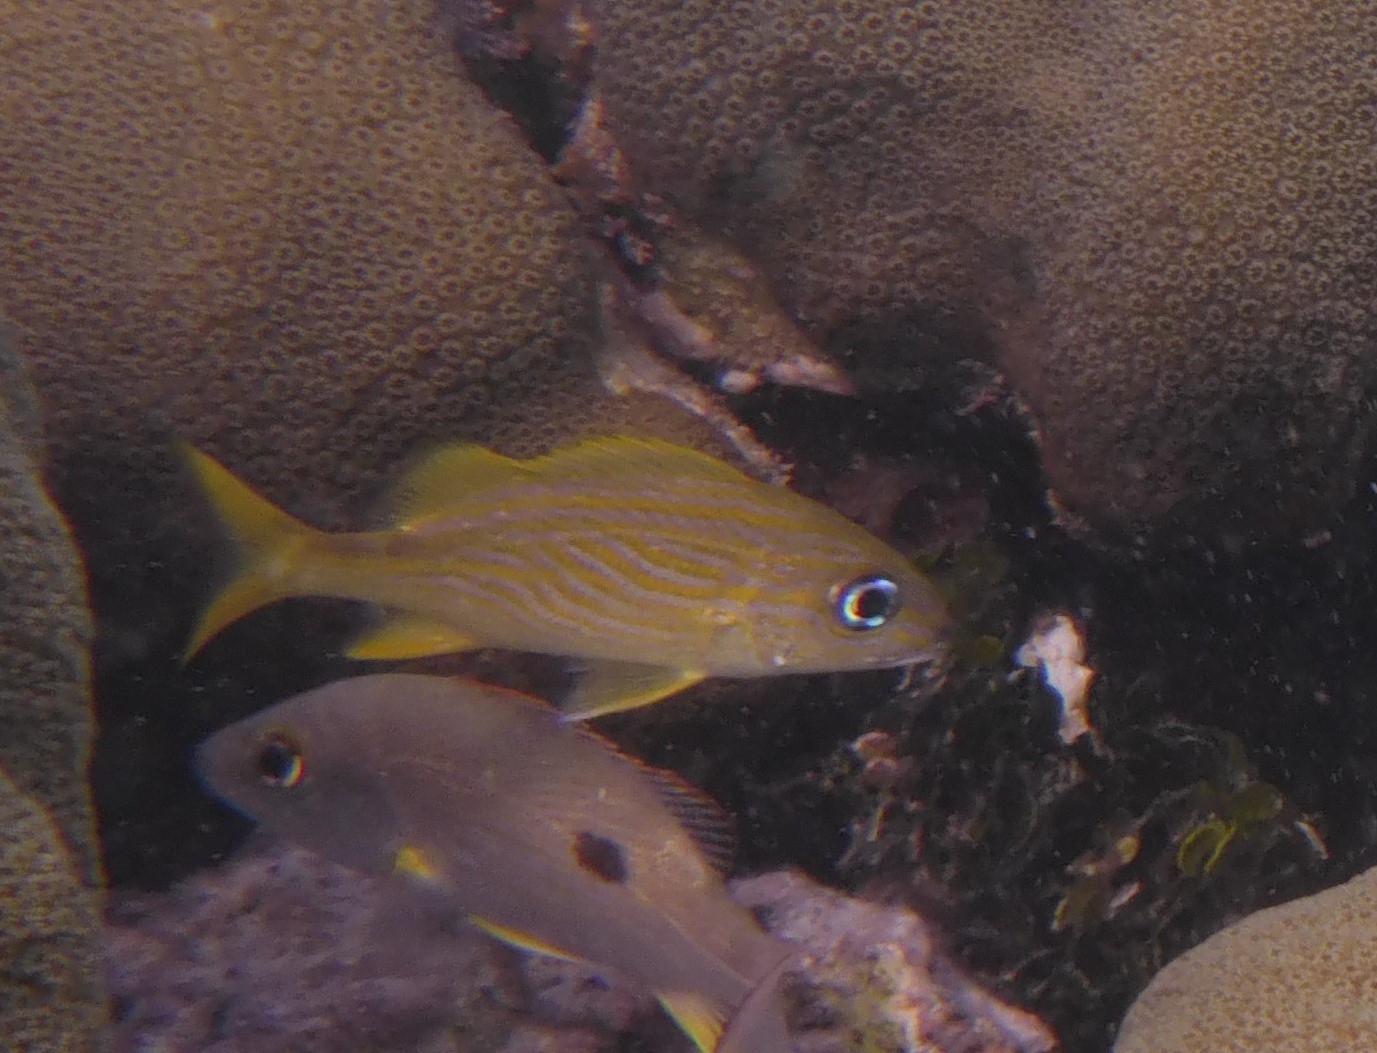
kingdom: Animalia
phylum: Chordata
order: Perciformes
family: Haemulidae
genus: Haemulon
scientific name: Haemulon flavolineatum
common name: French grunt
